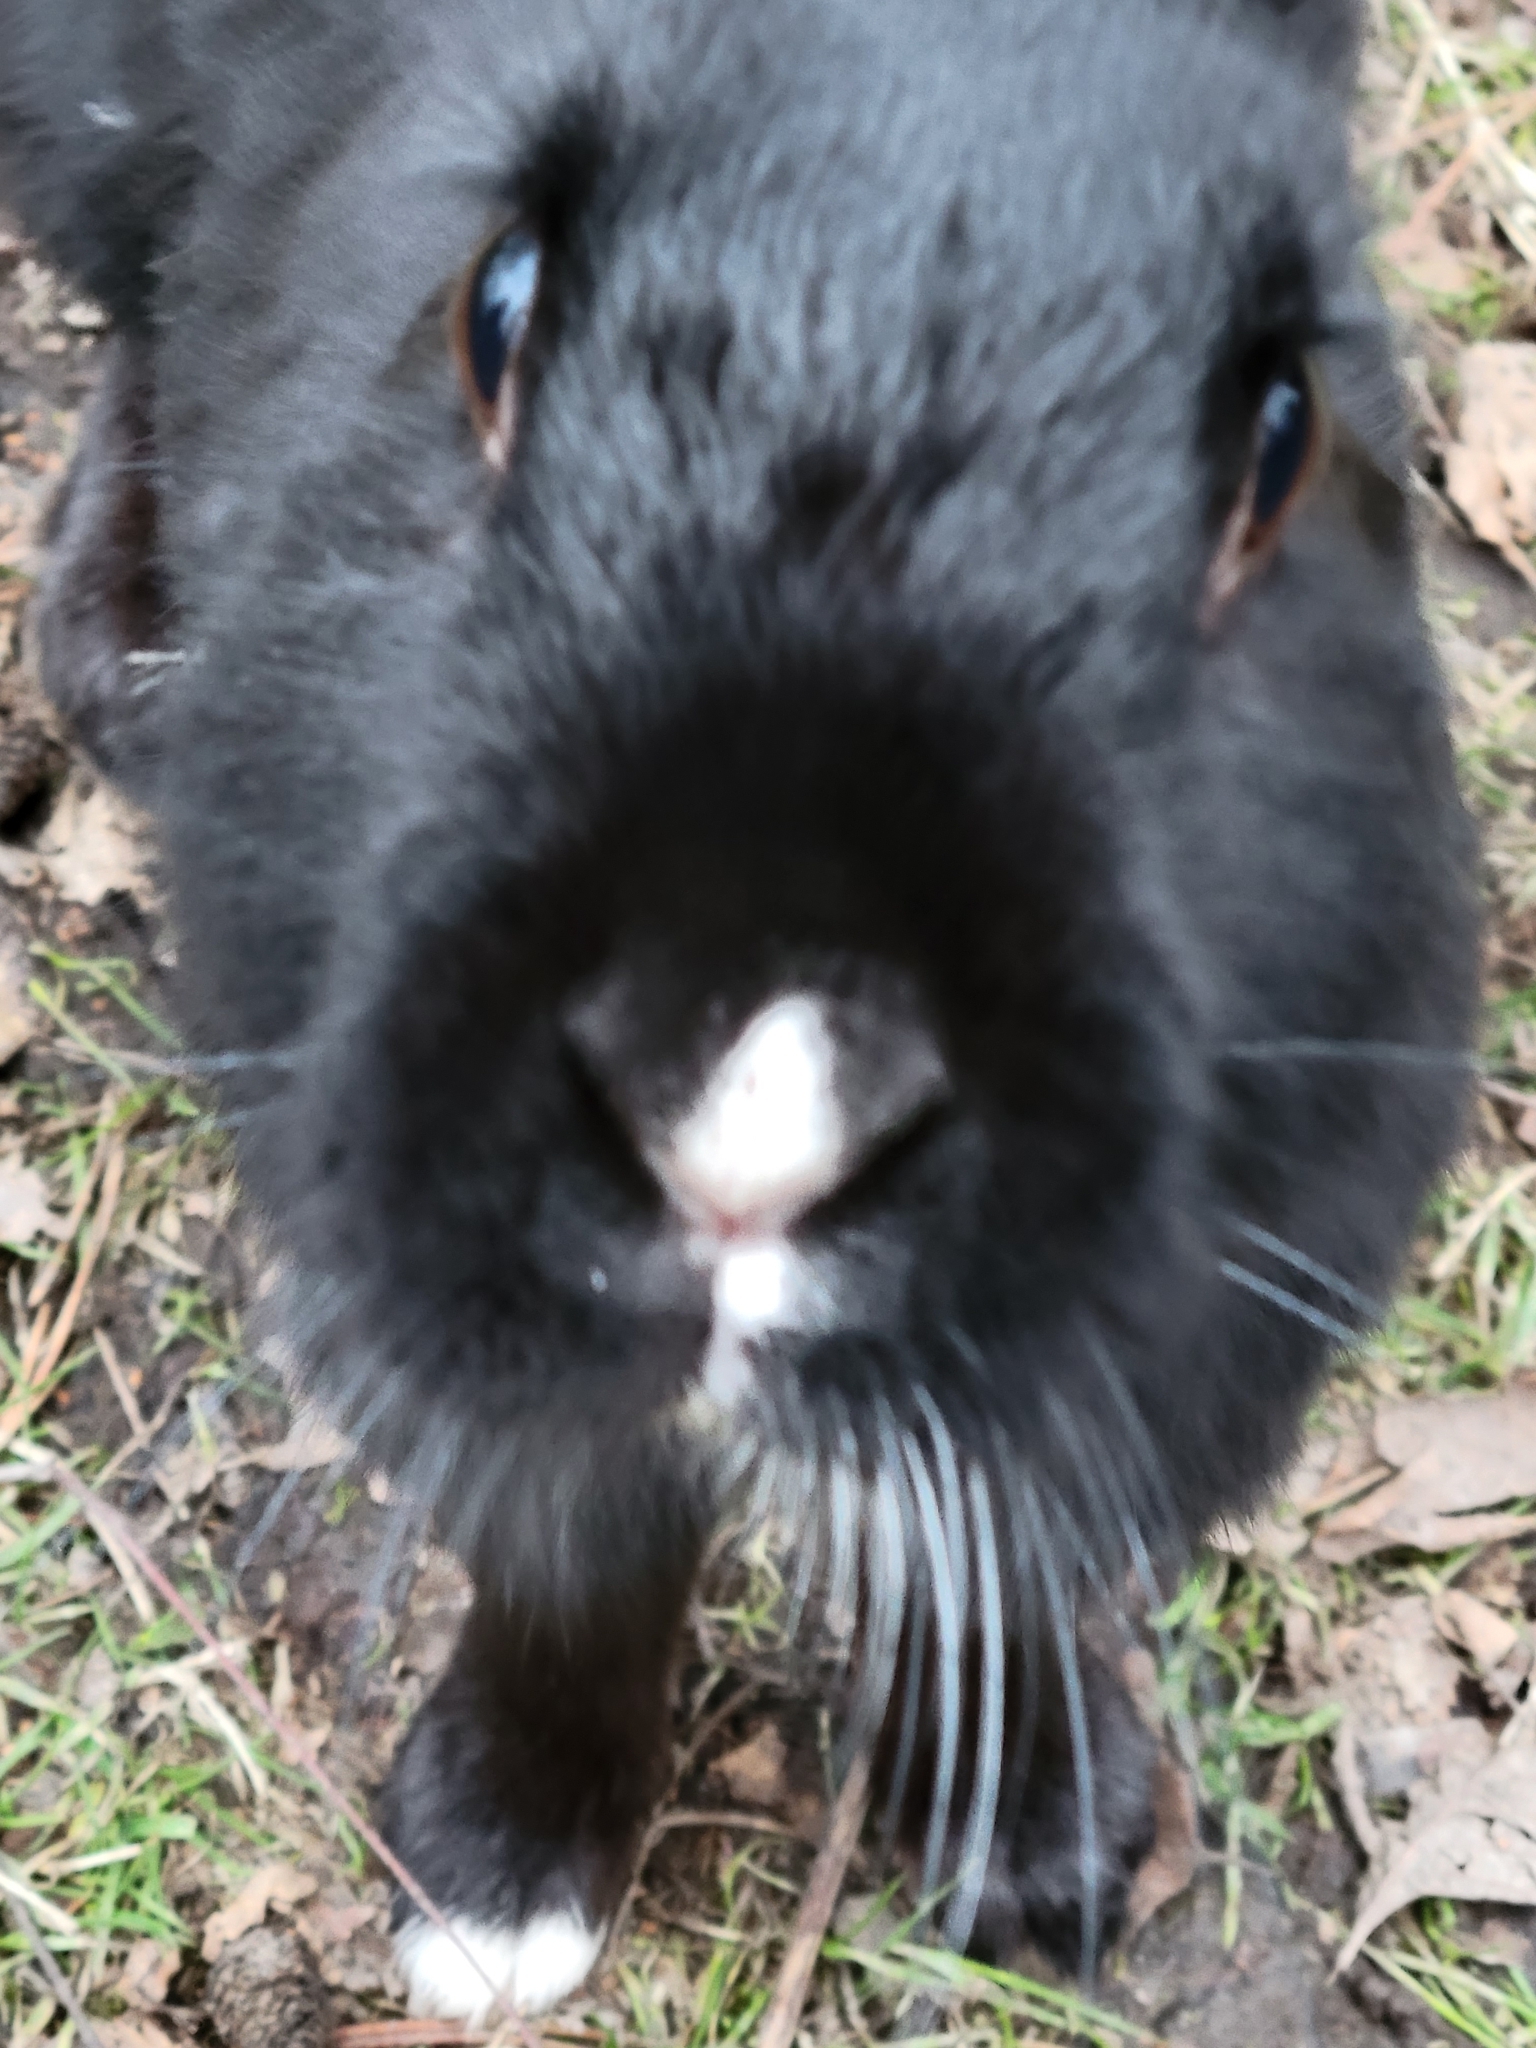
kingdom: Animalia
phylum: Chordata
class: Mammalia
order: Lagomorpha
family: Leporidae
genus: Oryctolagus
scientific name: Oryctolagus cuniculus
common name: European rabbit
